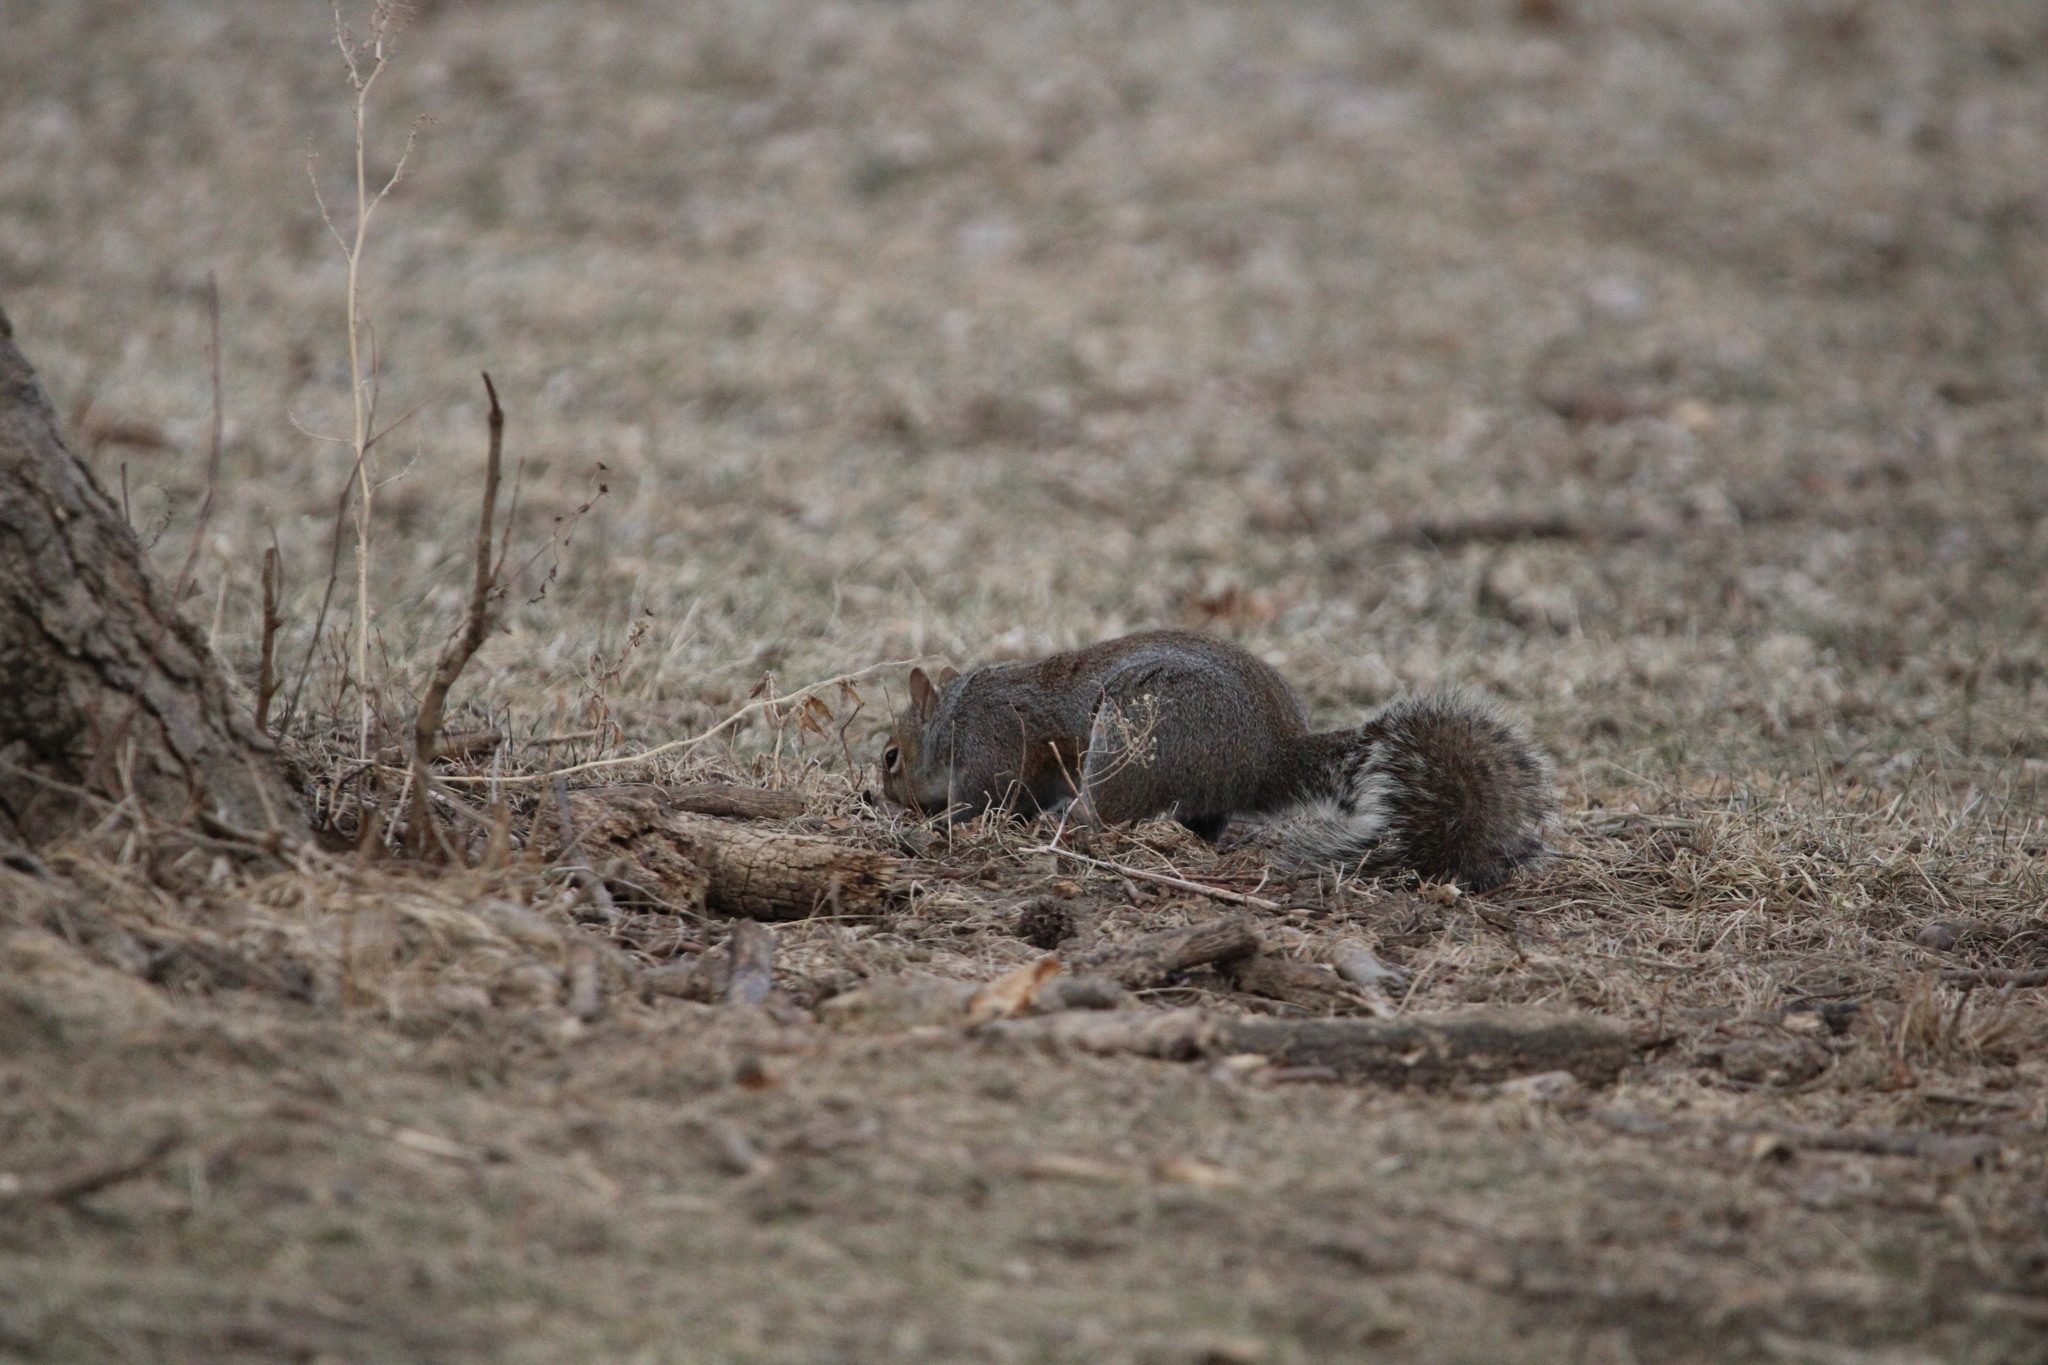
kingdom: Animalia
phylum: Chordata
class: Mammalia
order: Rodentia
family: Sciuridae
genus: Sciurus
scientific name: Sciurus carolinensis
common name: Eastern gray squirrel
